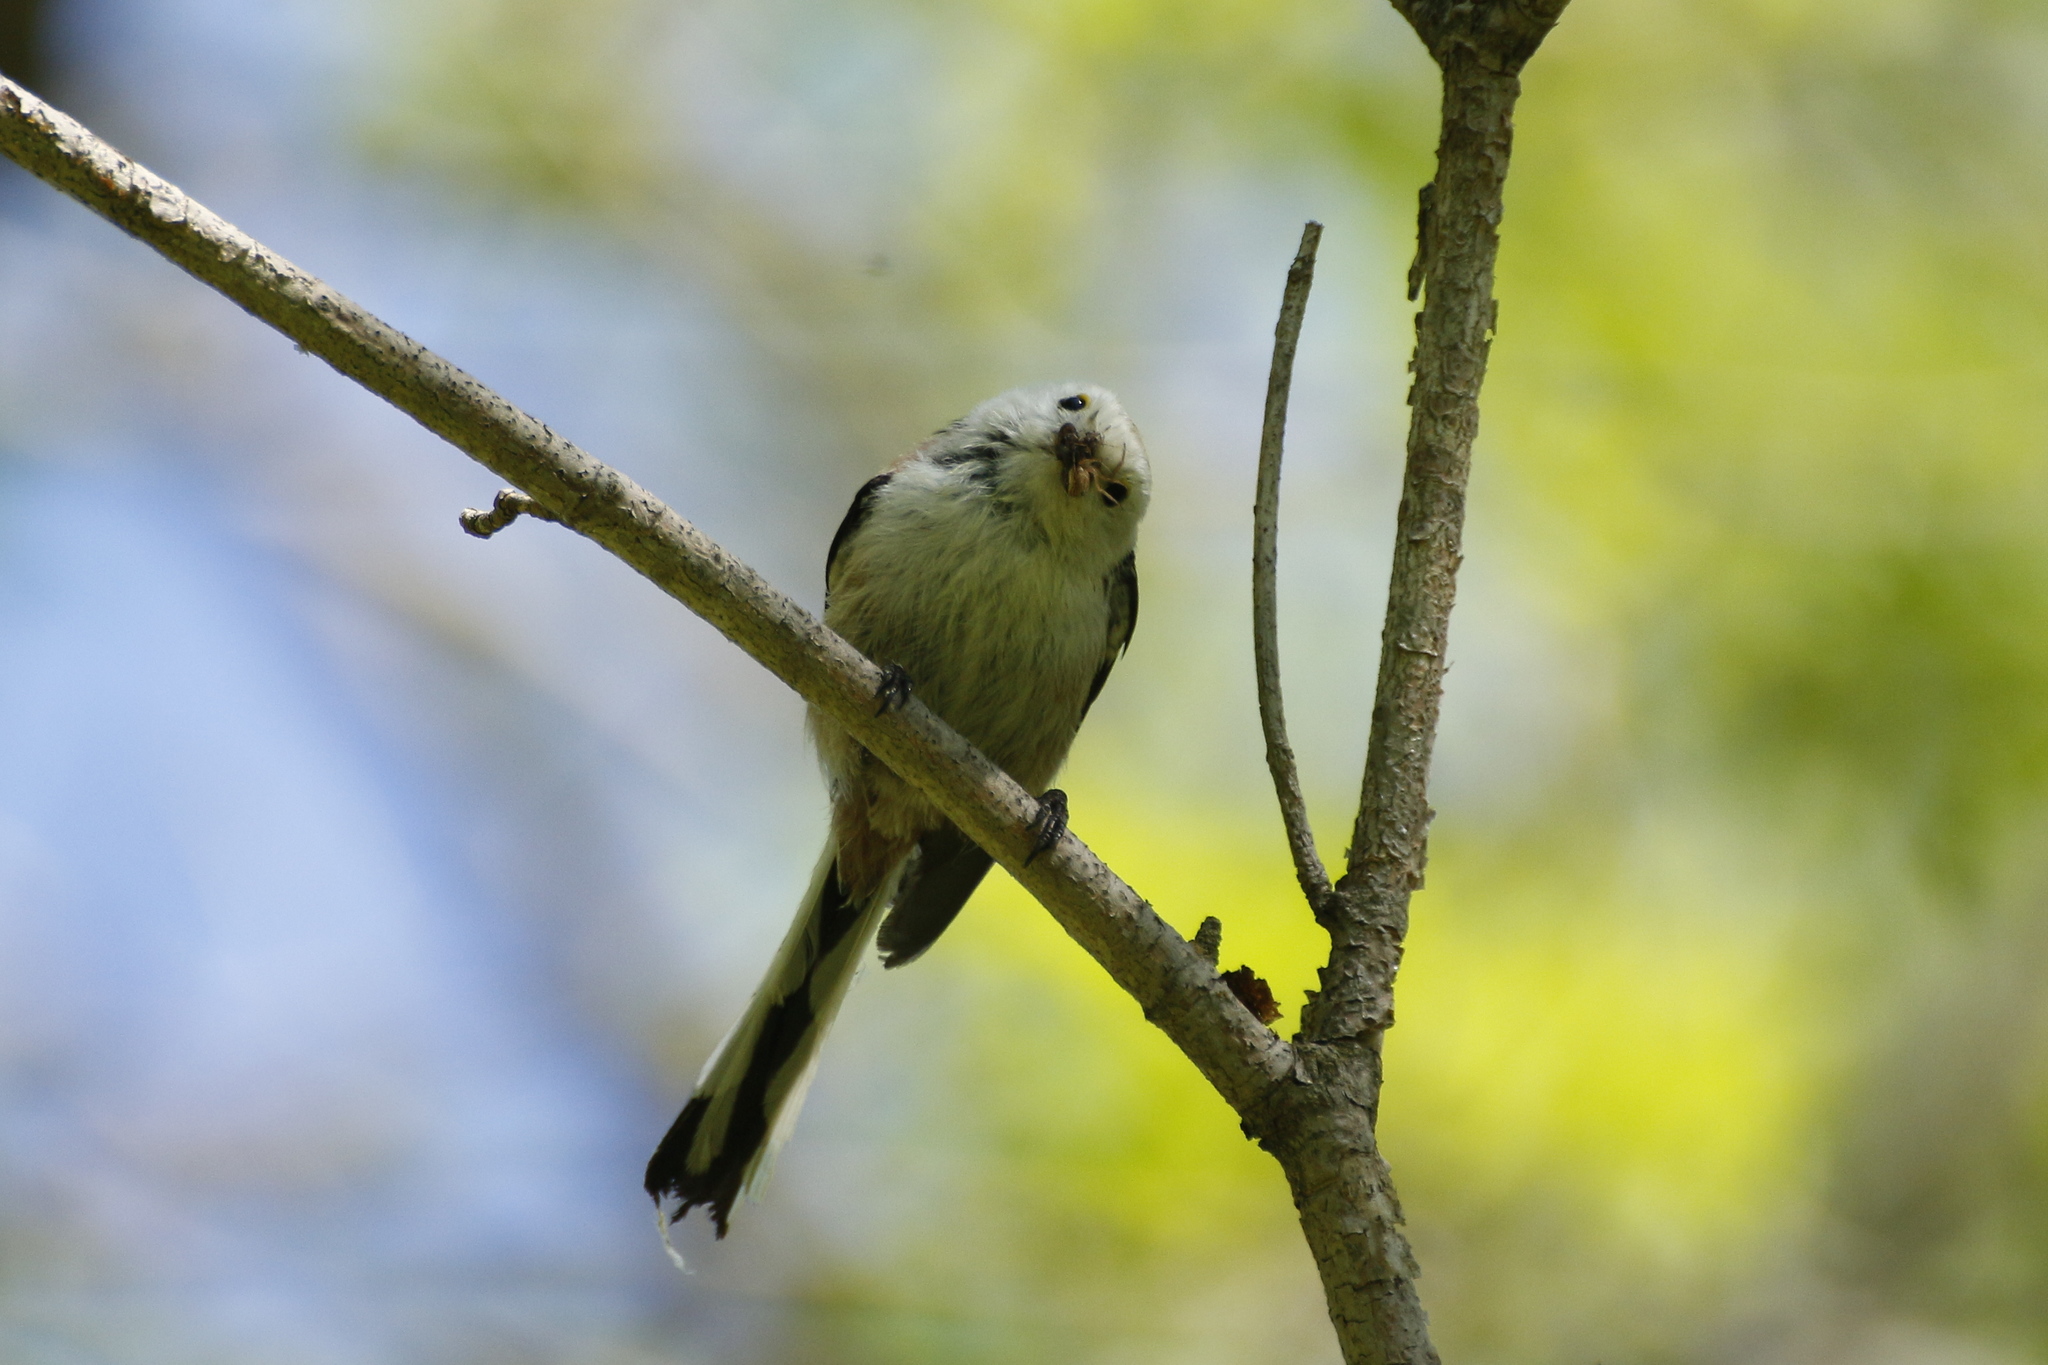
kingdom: Animalia
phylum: Chordata
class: Aves
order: Passeriformes
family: Aegithalidae
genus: Aegithalos
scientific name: Aegithalos caudatus
